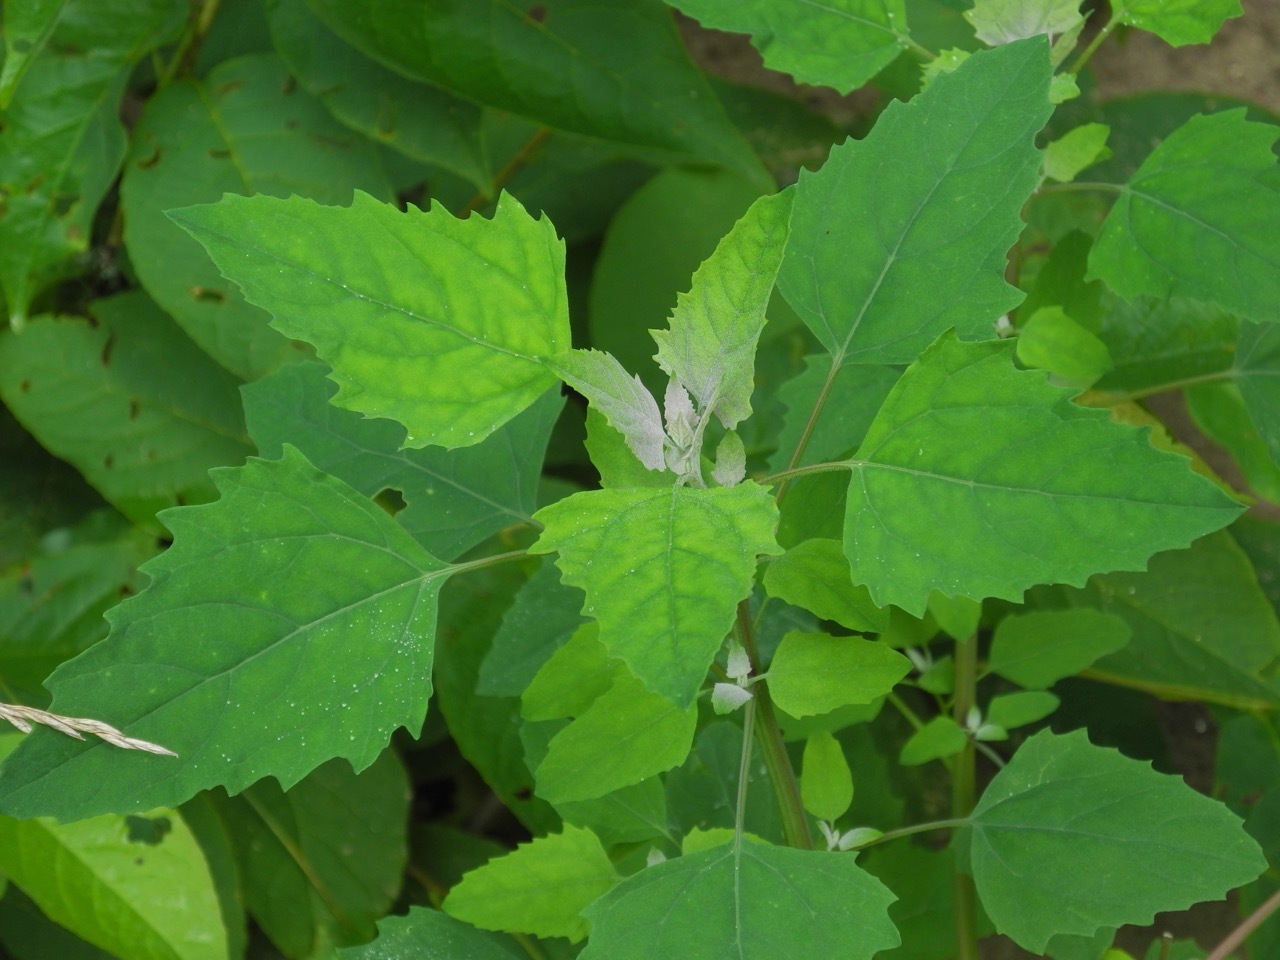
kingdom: Plantae
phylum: Tracheophyta
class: Magnoliopsida
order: Caryophyllales
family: Amaranthaceae
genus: Chenopodium
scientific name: Chenopodium album
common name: Fat-hen
